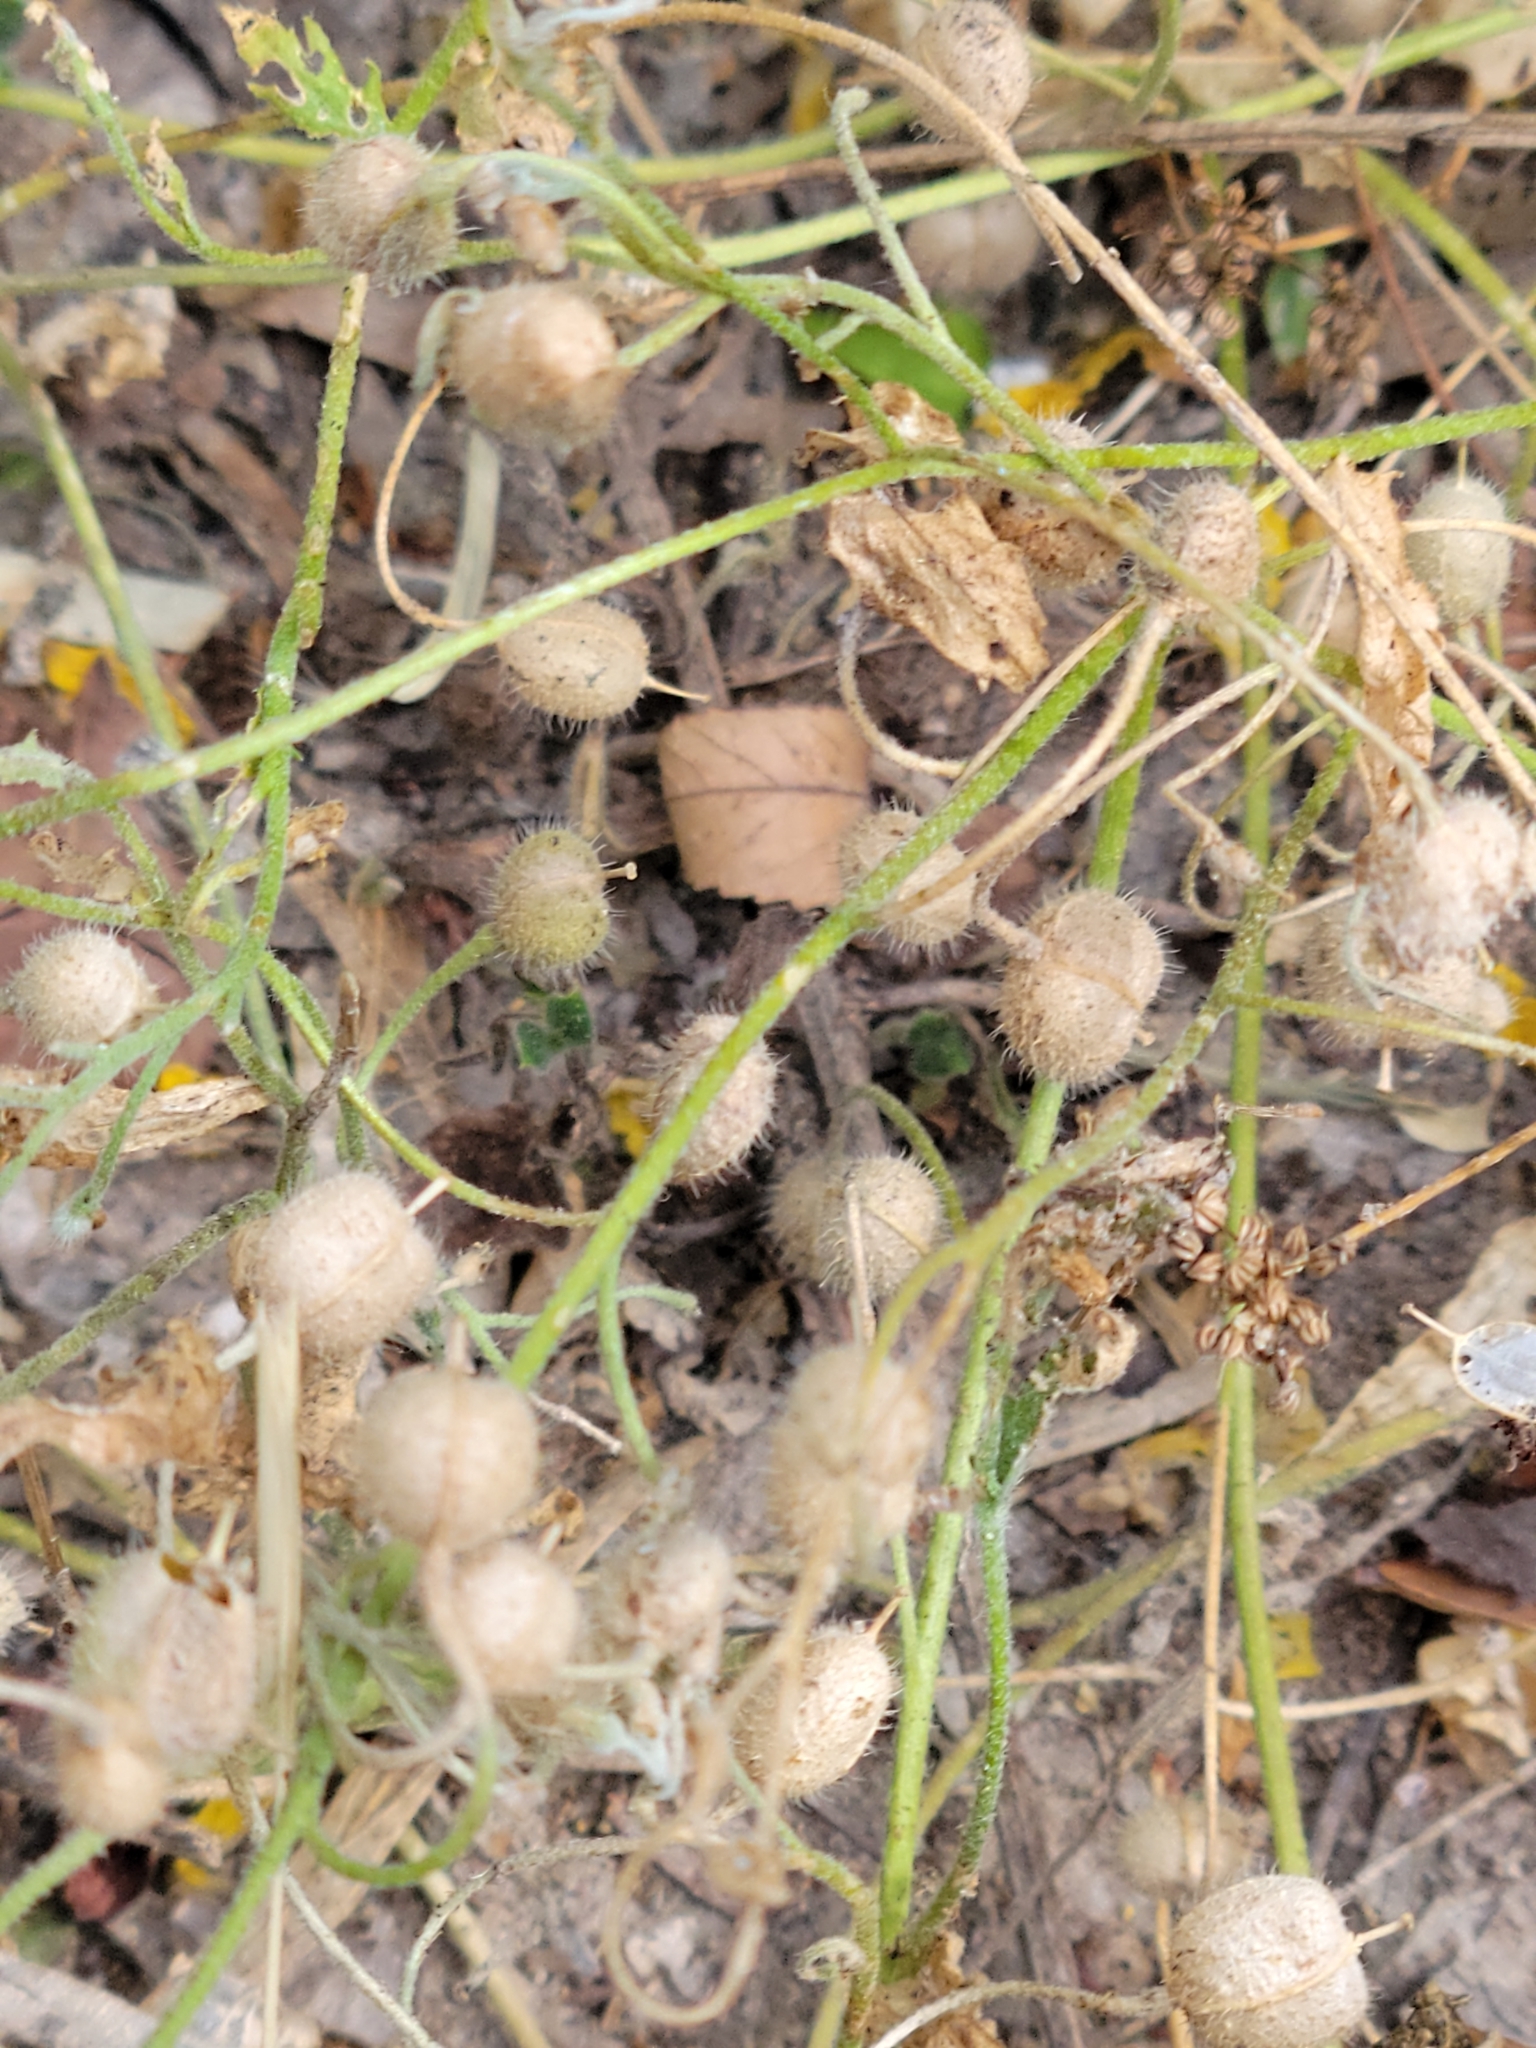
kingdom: Plantae
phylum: Tracheophyta
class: Magnoliopsida
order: Brassicales
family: Brassicaceae
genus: Paysonia
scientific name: Paysonia lasiocarpa
